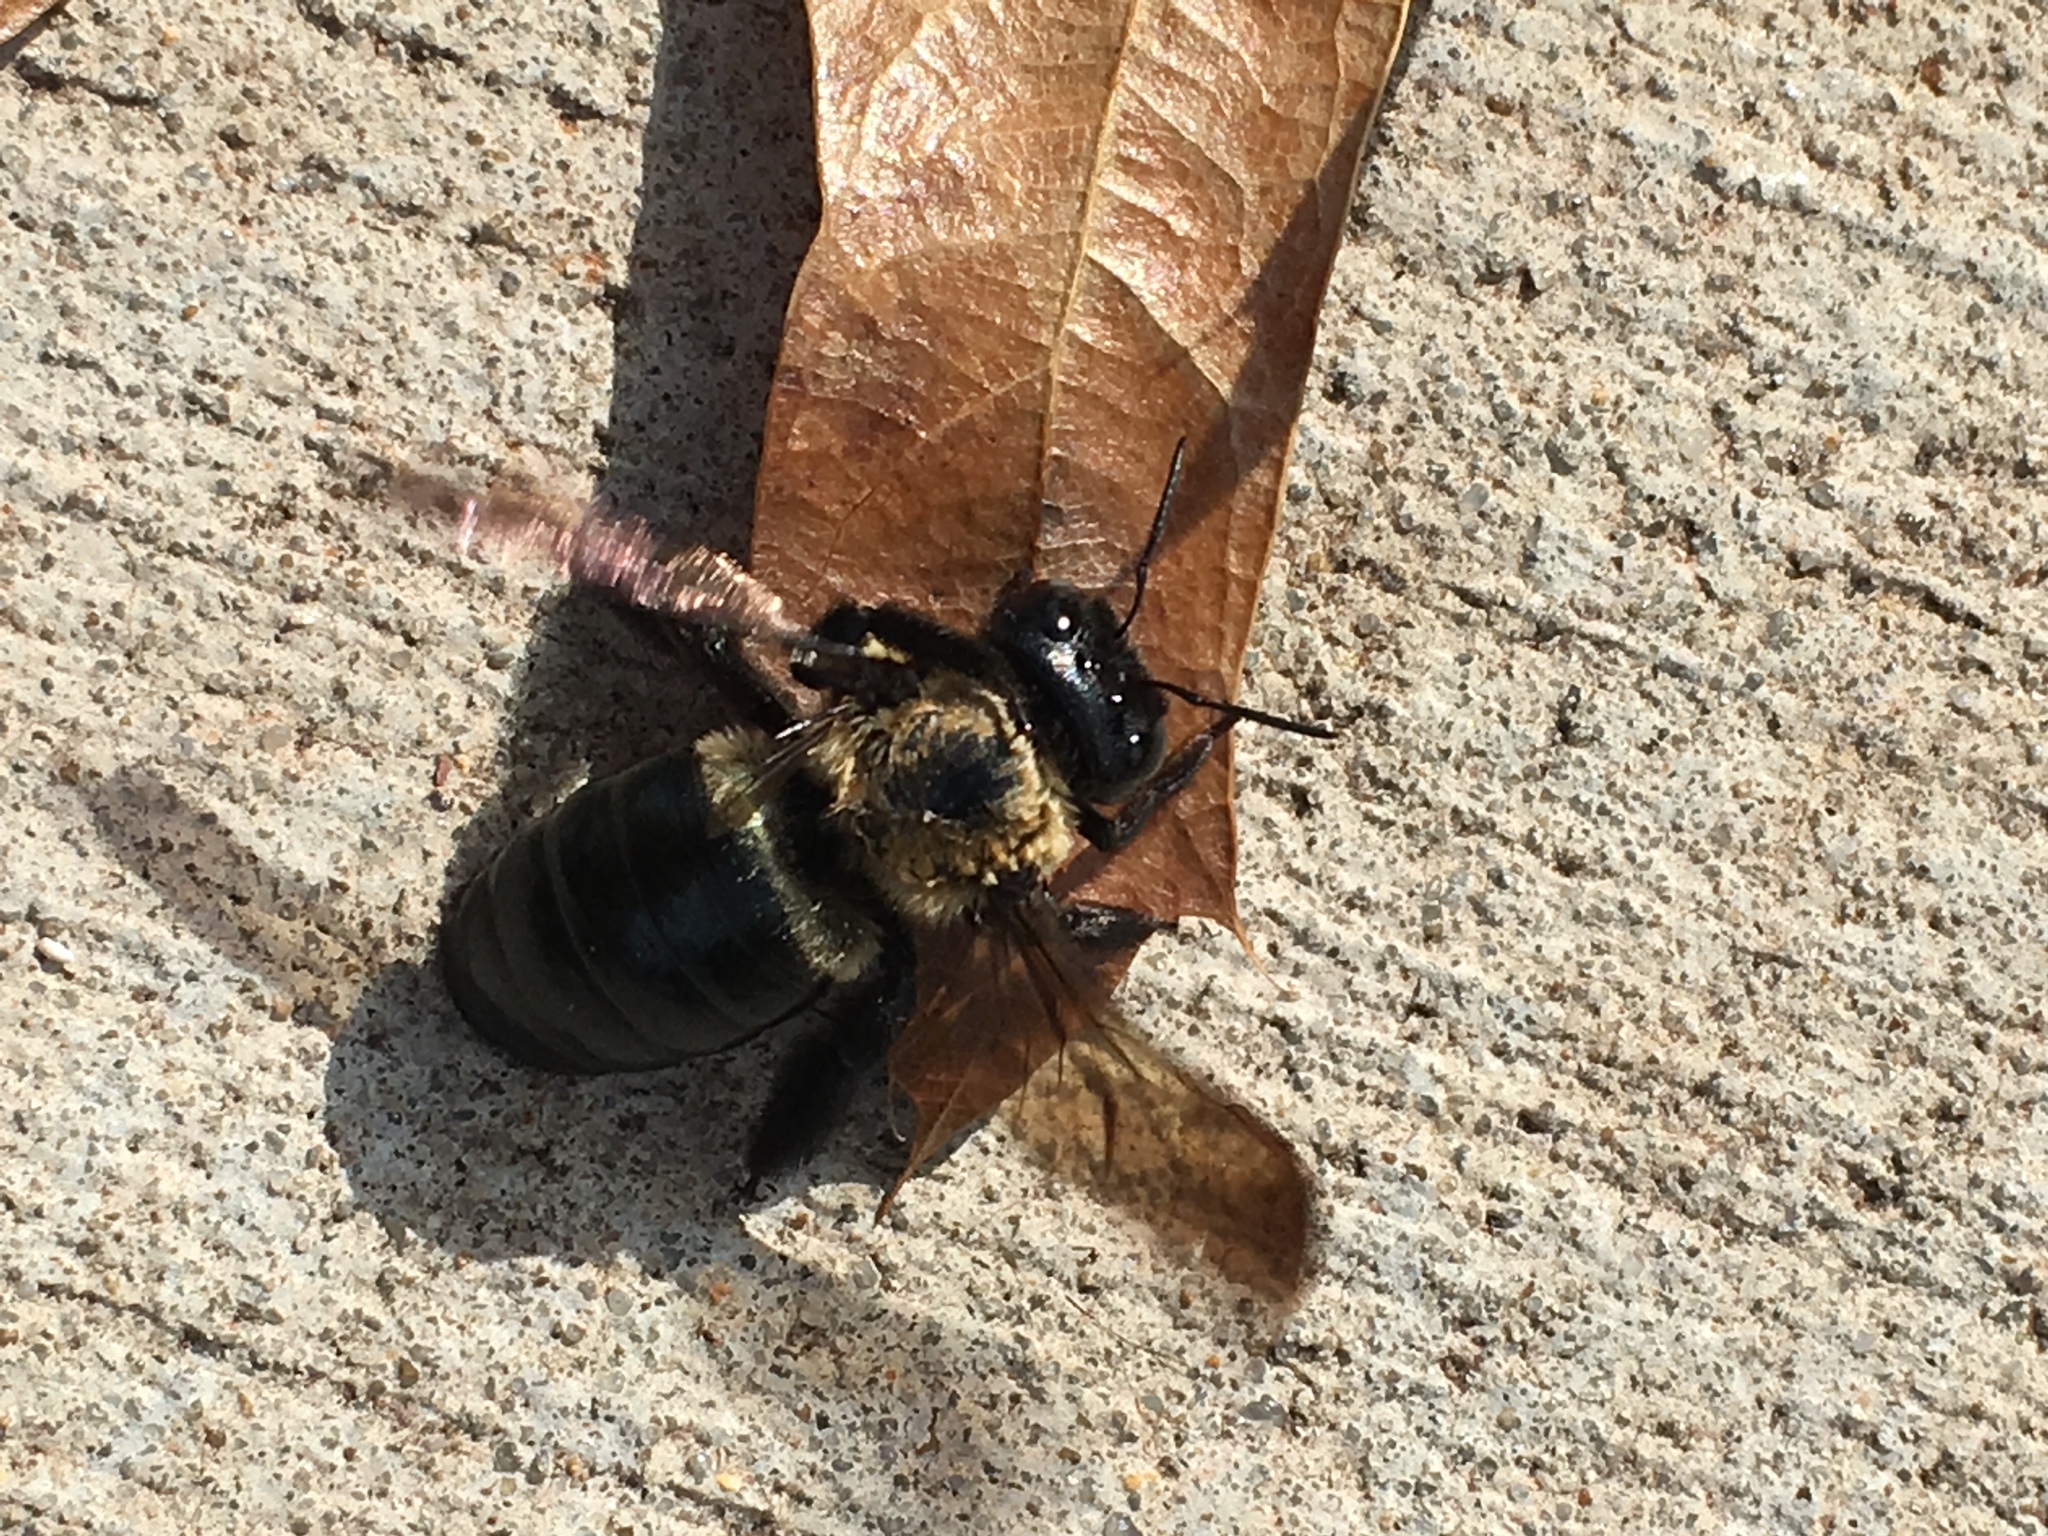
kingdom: Animalia
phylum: Arthropoda
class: Insecta
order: Hymenoptera
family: Apidae
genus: Xylocopa
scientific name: Xylocopa virginica
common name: Carpenter bee
